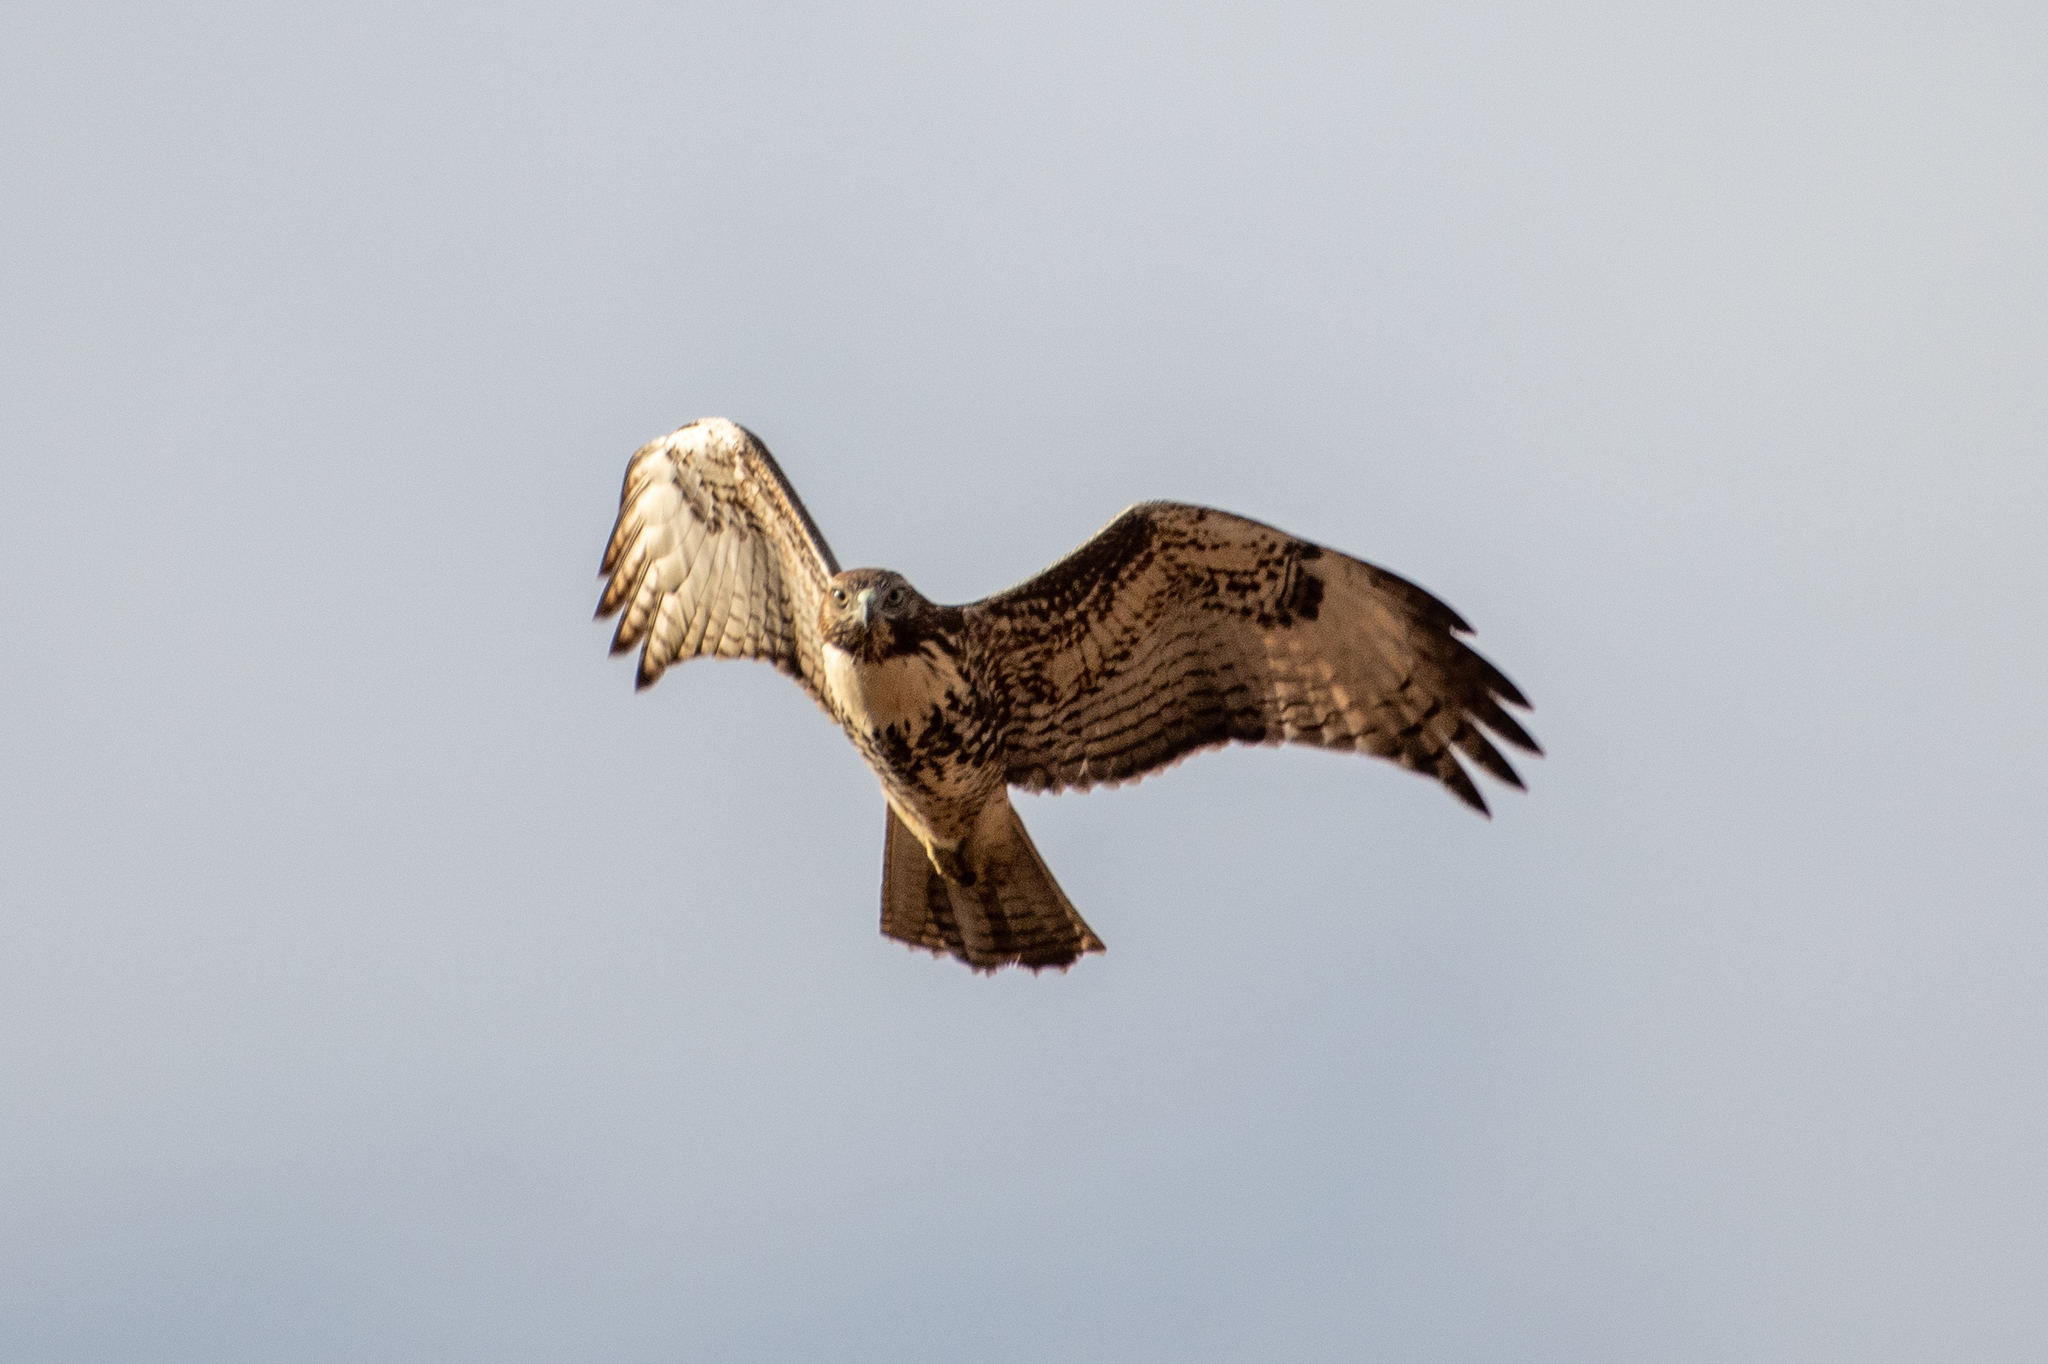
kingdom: Animalia
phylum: Chordata
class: Aves
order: Accipitriformes
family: Accipitridae
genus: Buteo
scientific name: Buteo jamaicensis
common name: Red-tailed hawk
